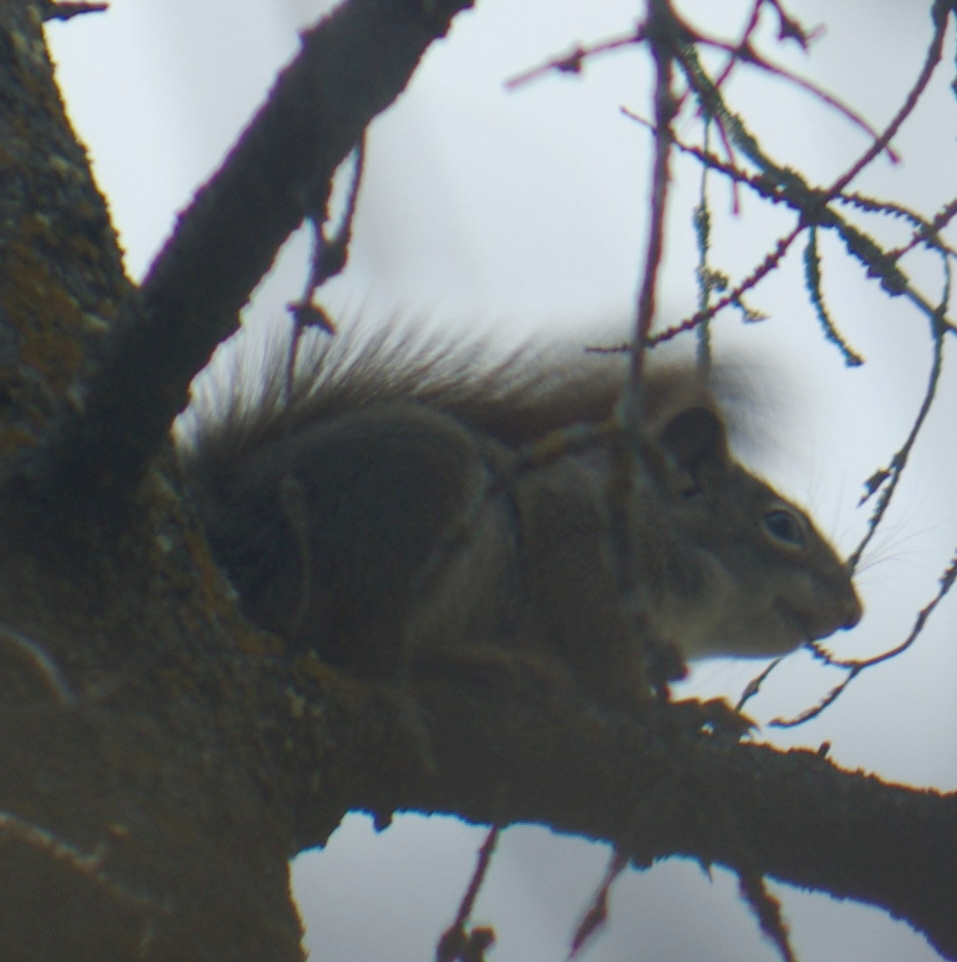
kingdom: Animalia
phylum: Chordata
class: Mammalia
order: Rodentia
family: Sciuridae
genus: Tamiasciurus
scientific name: Tamiasciurus hudsonicus
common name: Red squirrel
